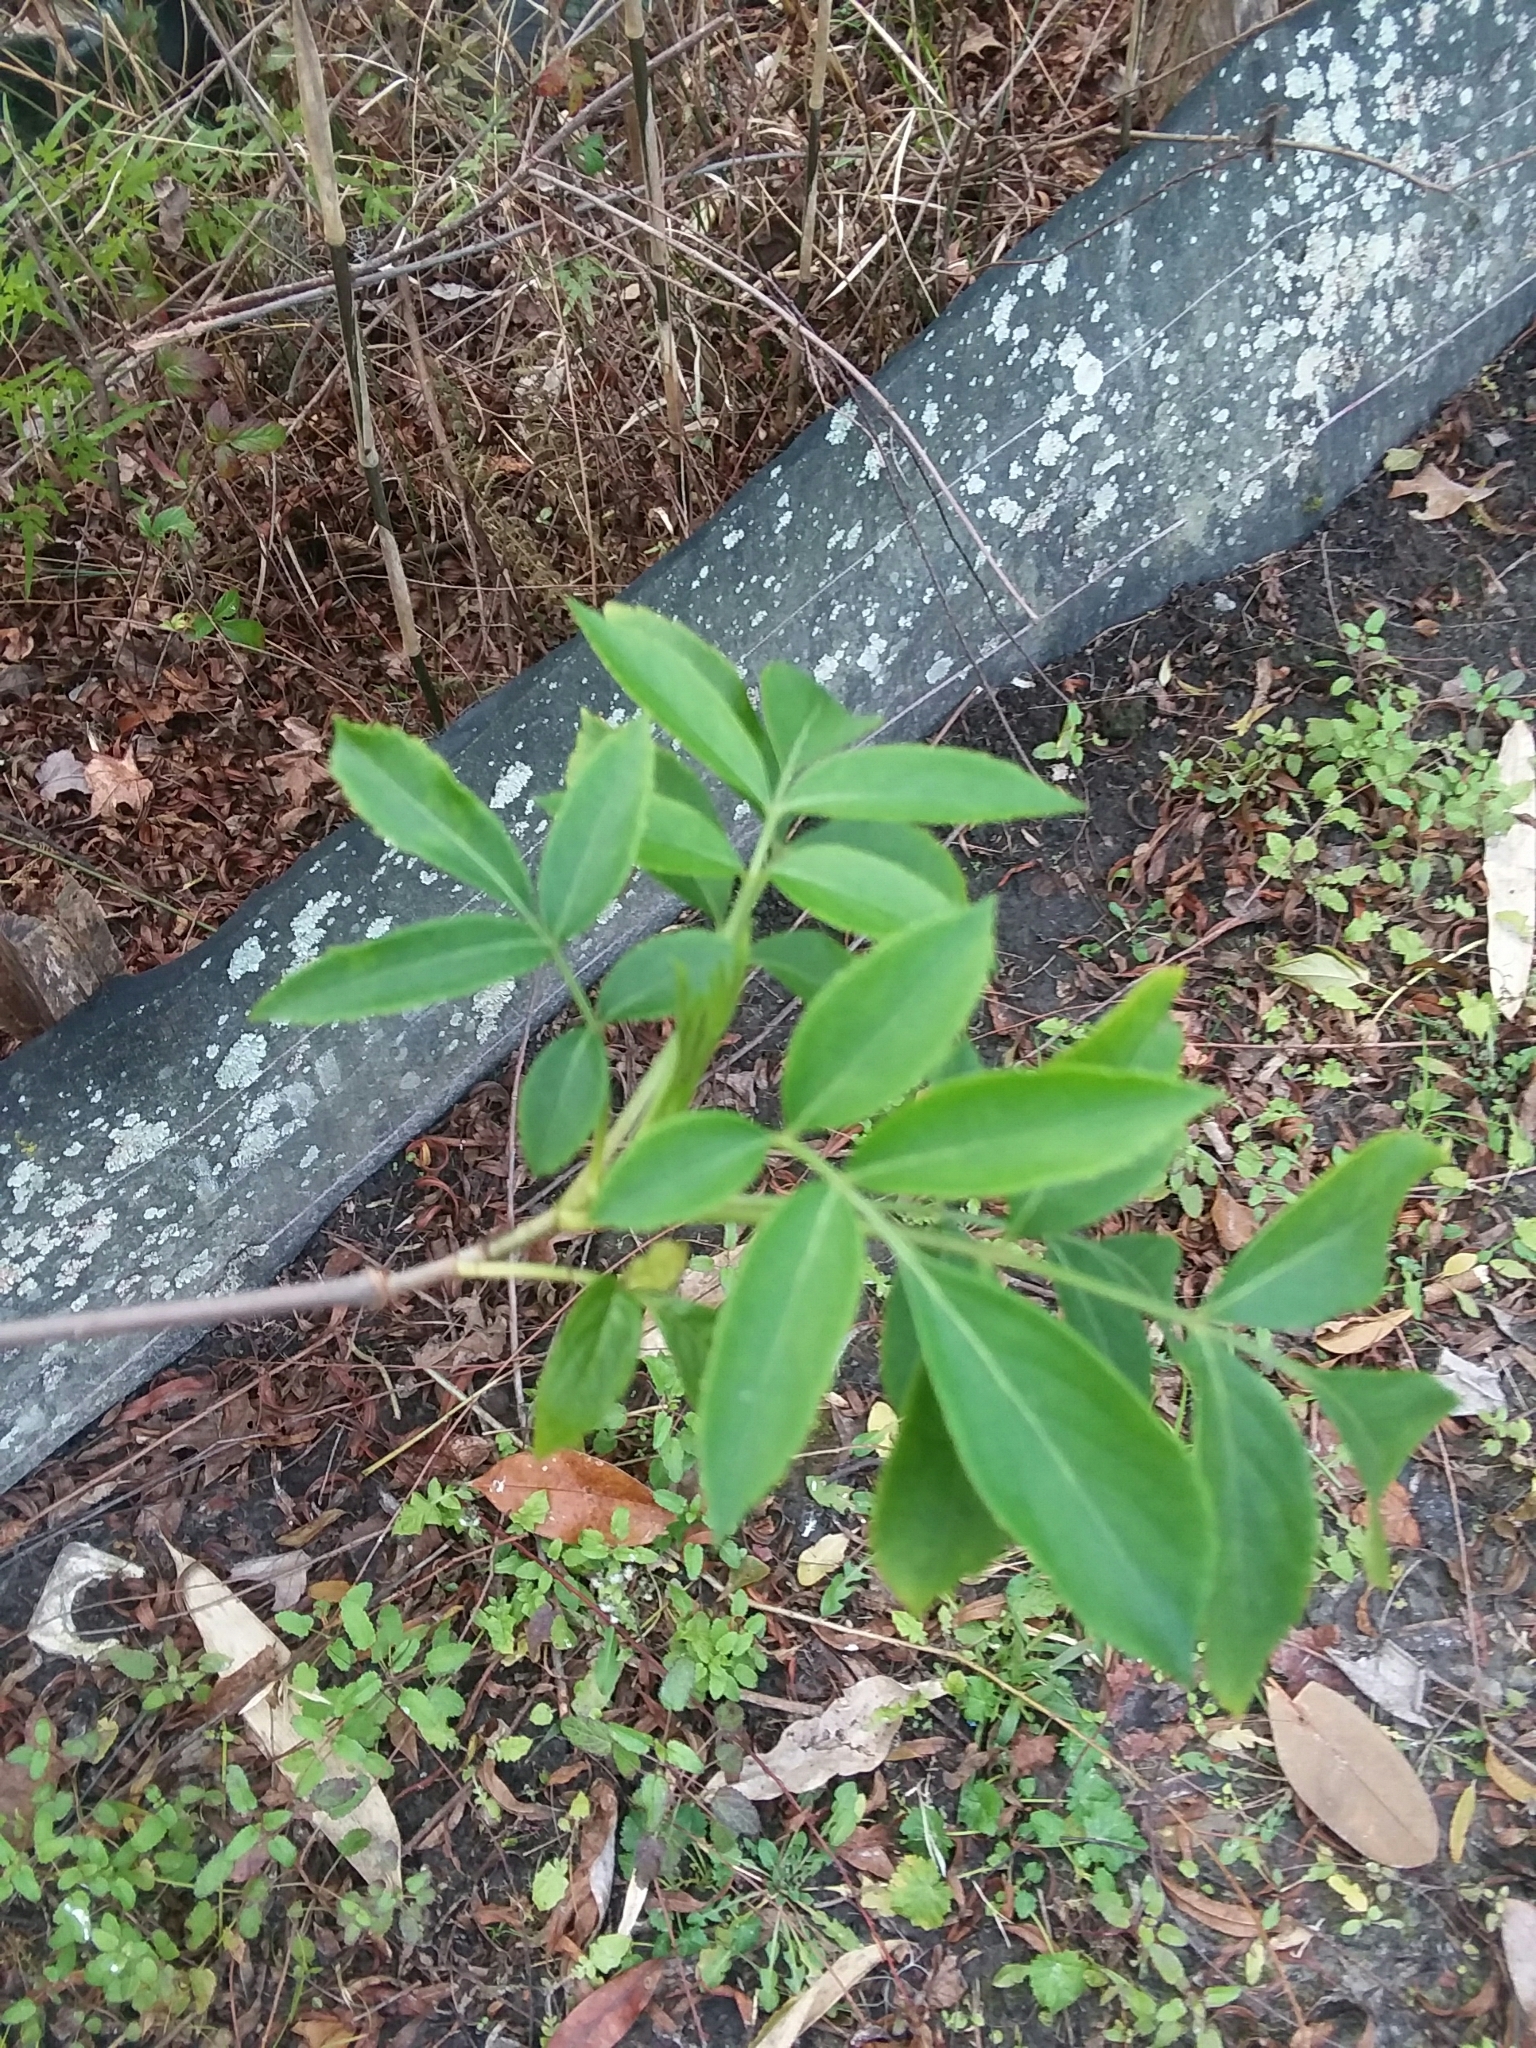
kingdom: Plantae
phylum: Tracheophyta
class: Magnoliopsida
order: Dipsacales
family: Viburnaceae
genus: Sambucus
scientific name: Sambucus canadensis
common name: American elder
